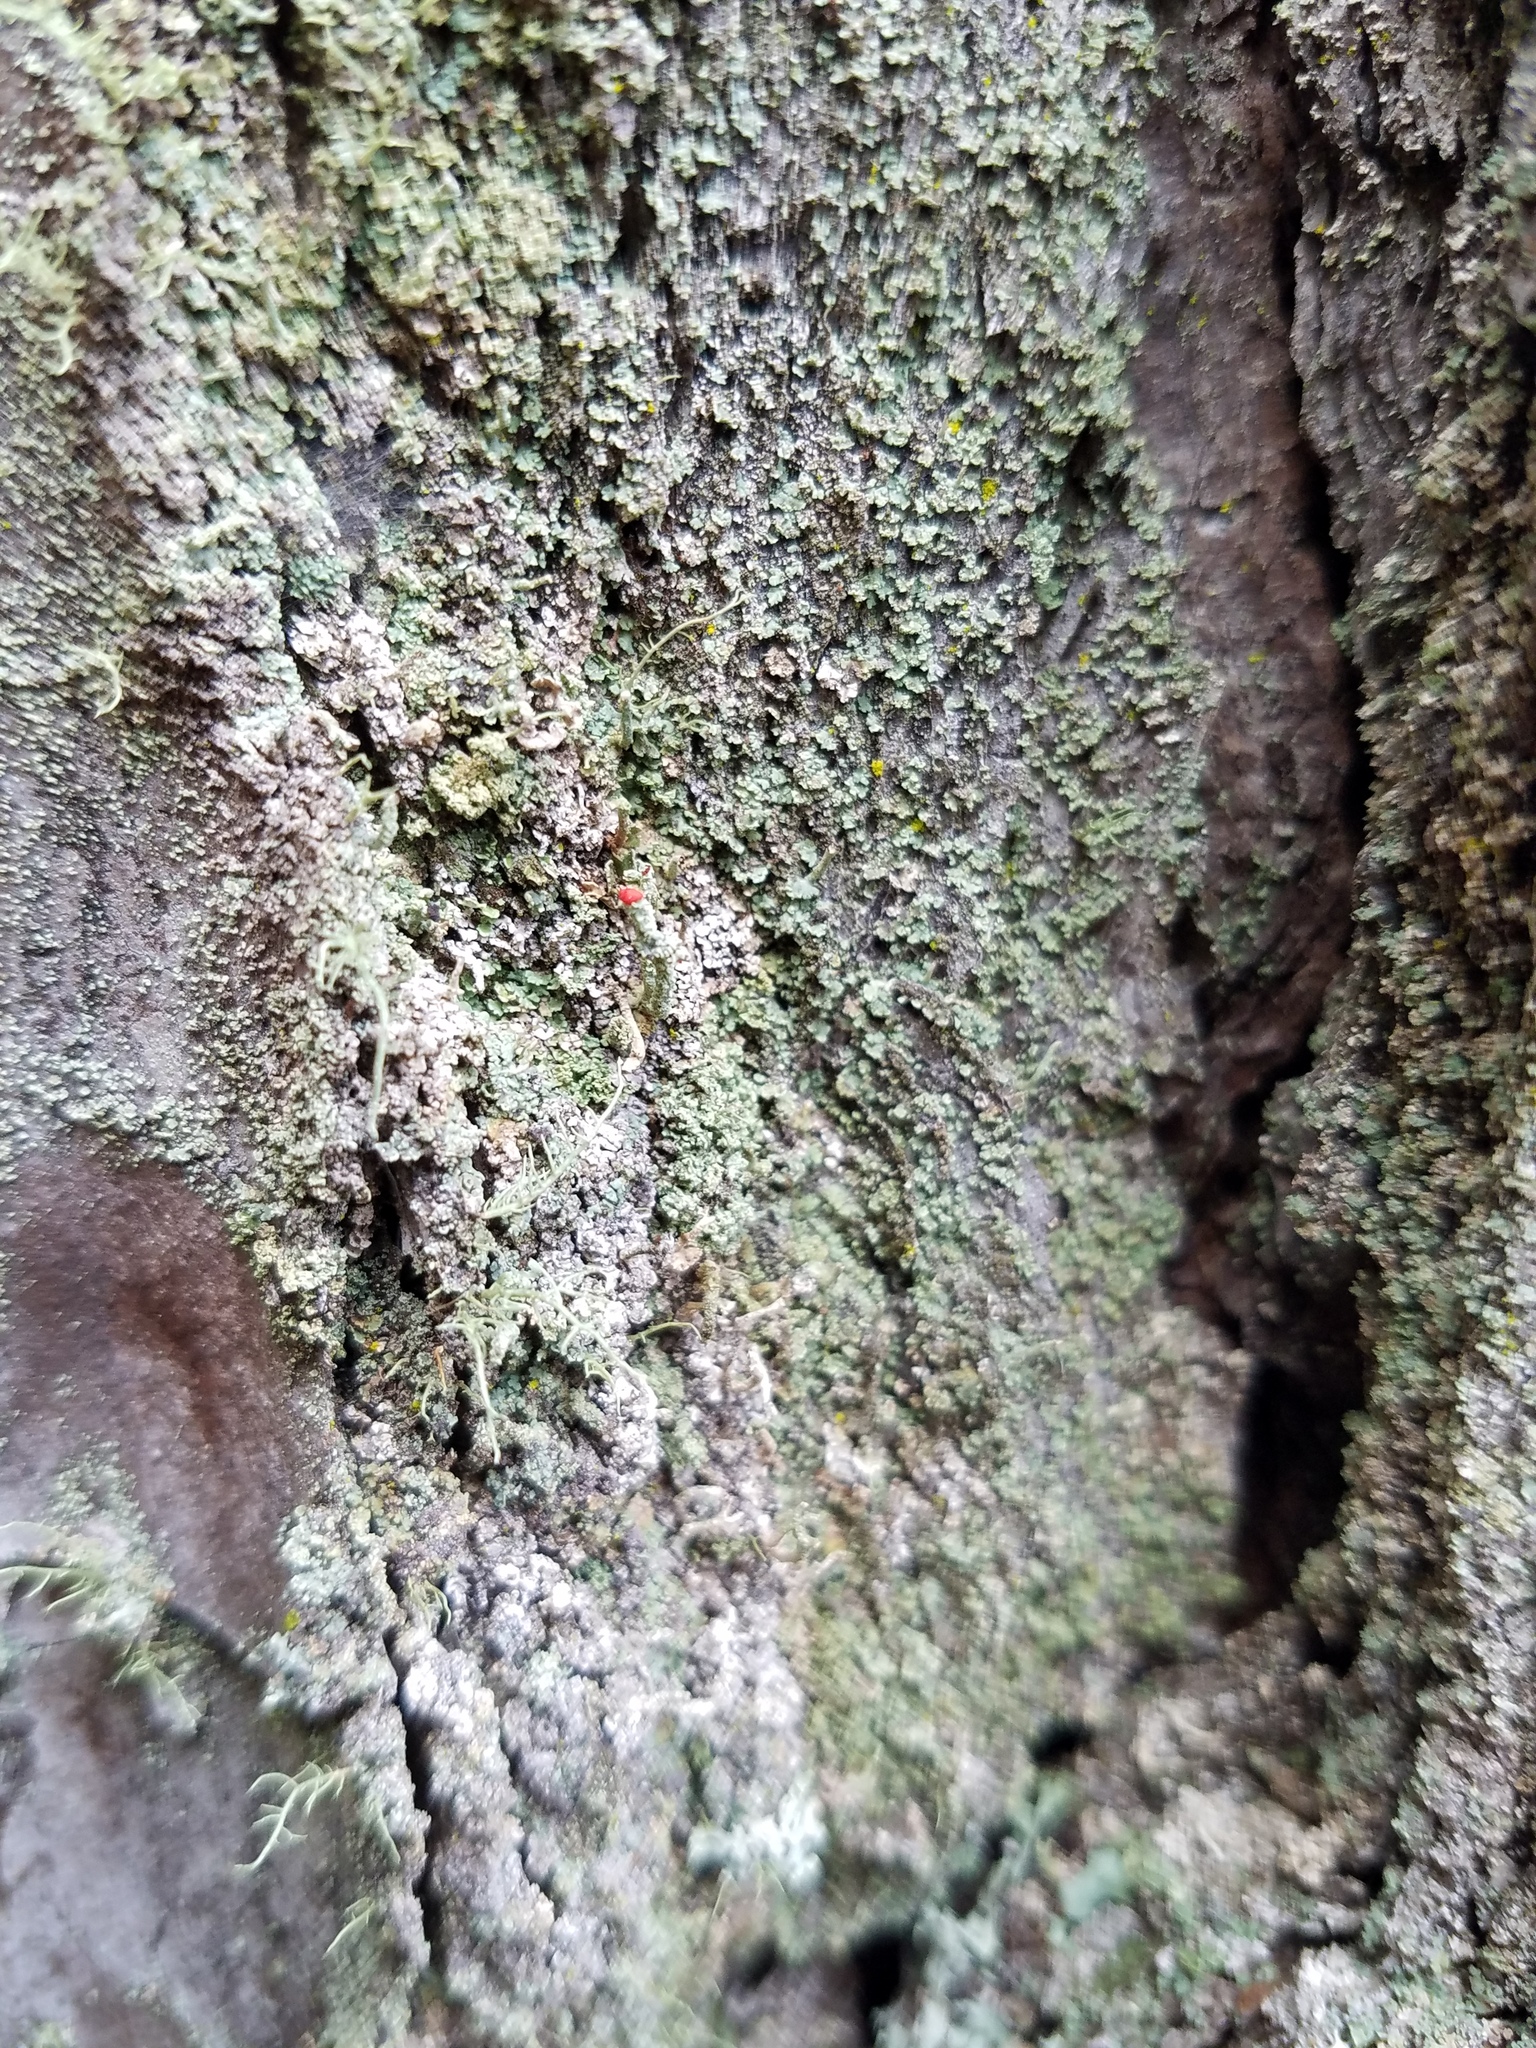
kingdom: Fungi
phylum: Ascomycota
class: Lecanoromycetes
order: Lecanorales
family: Cladoniaceae
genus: Cladonia
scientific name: Cladonia ravenelii
